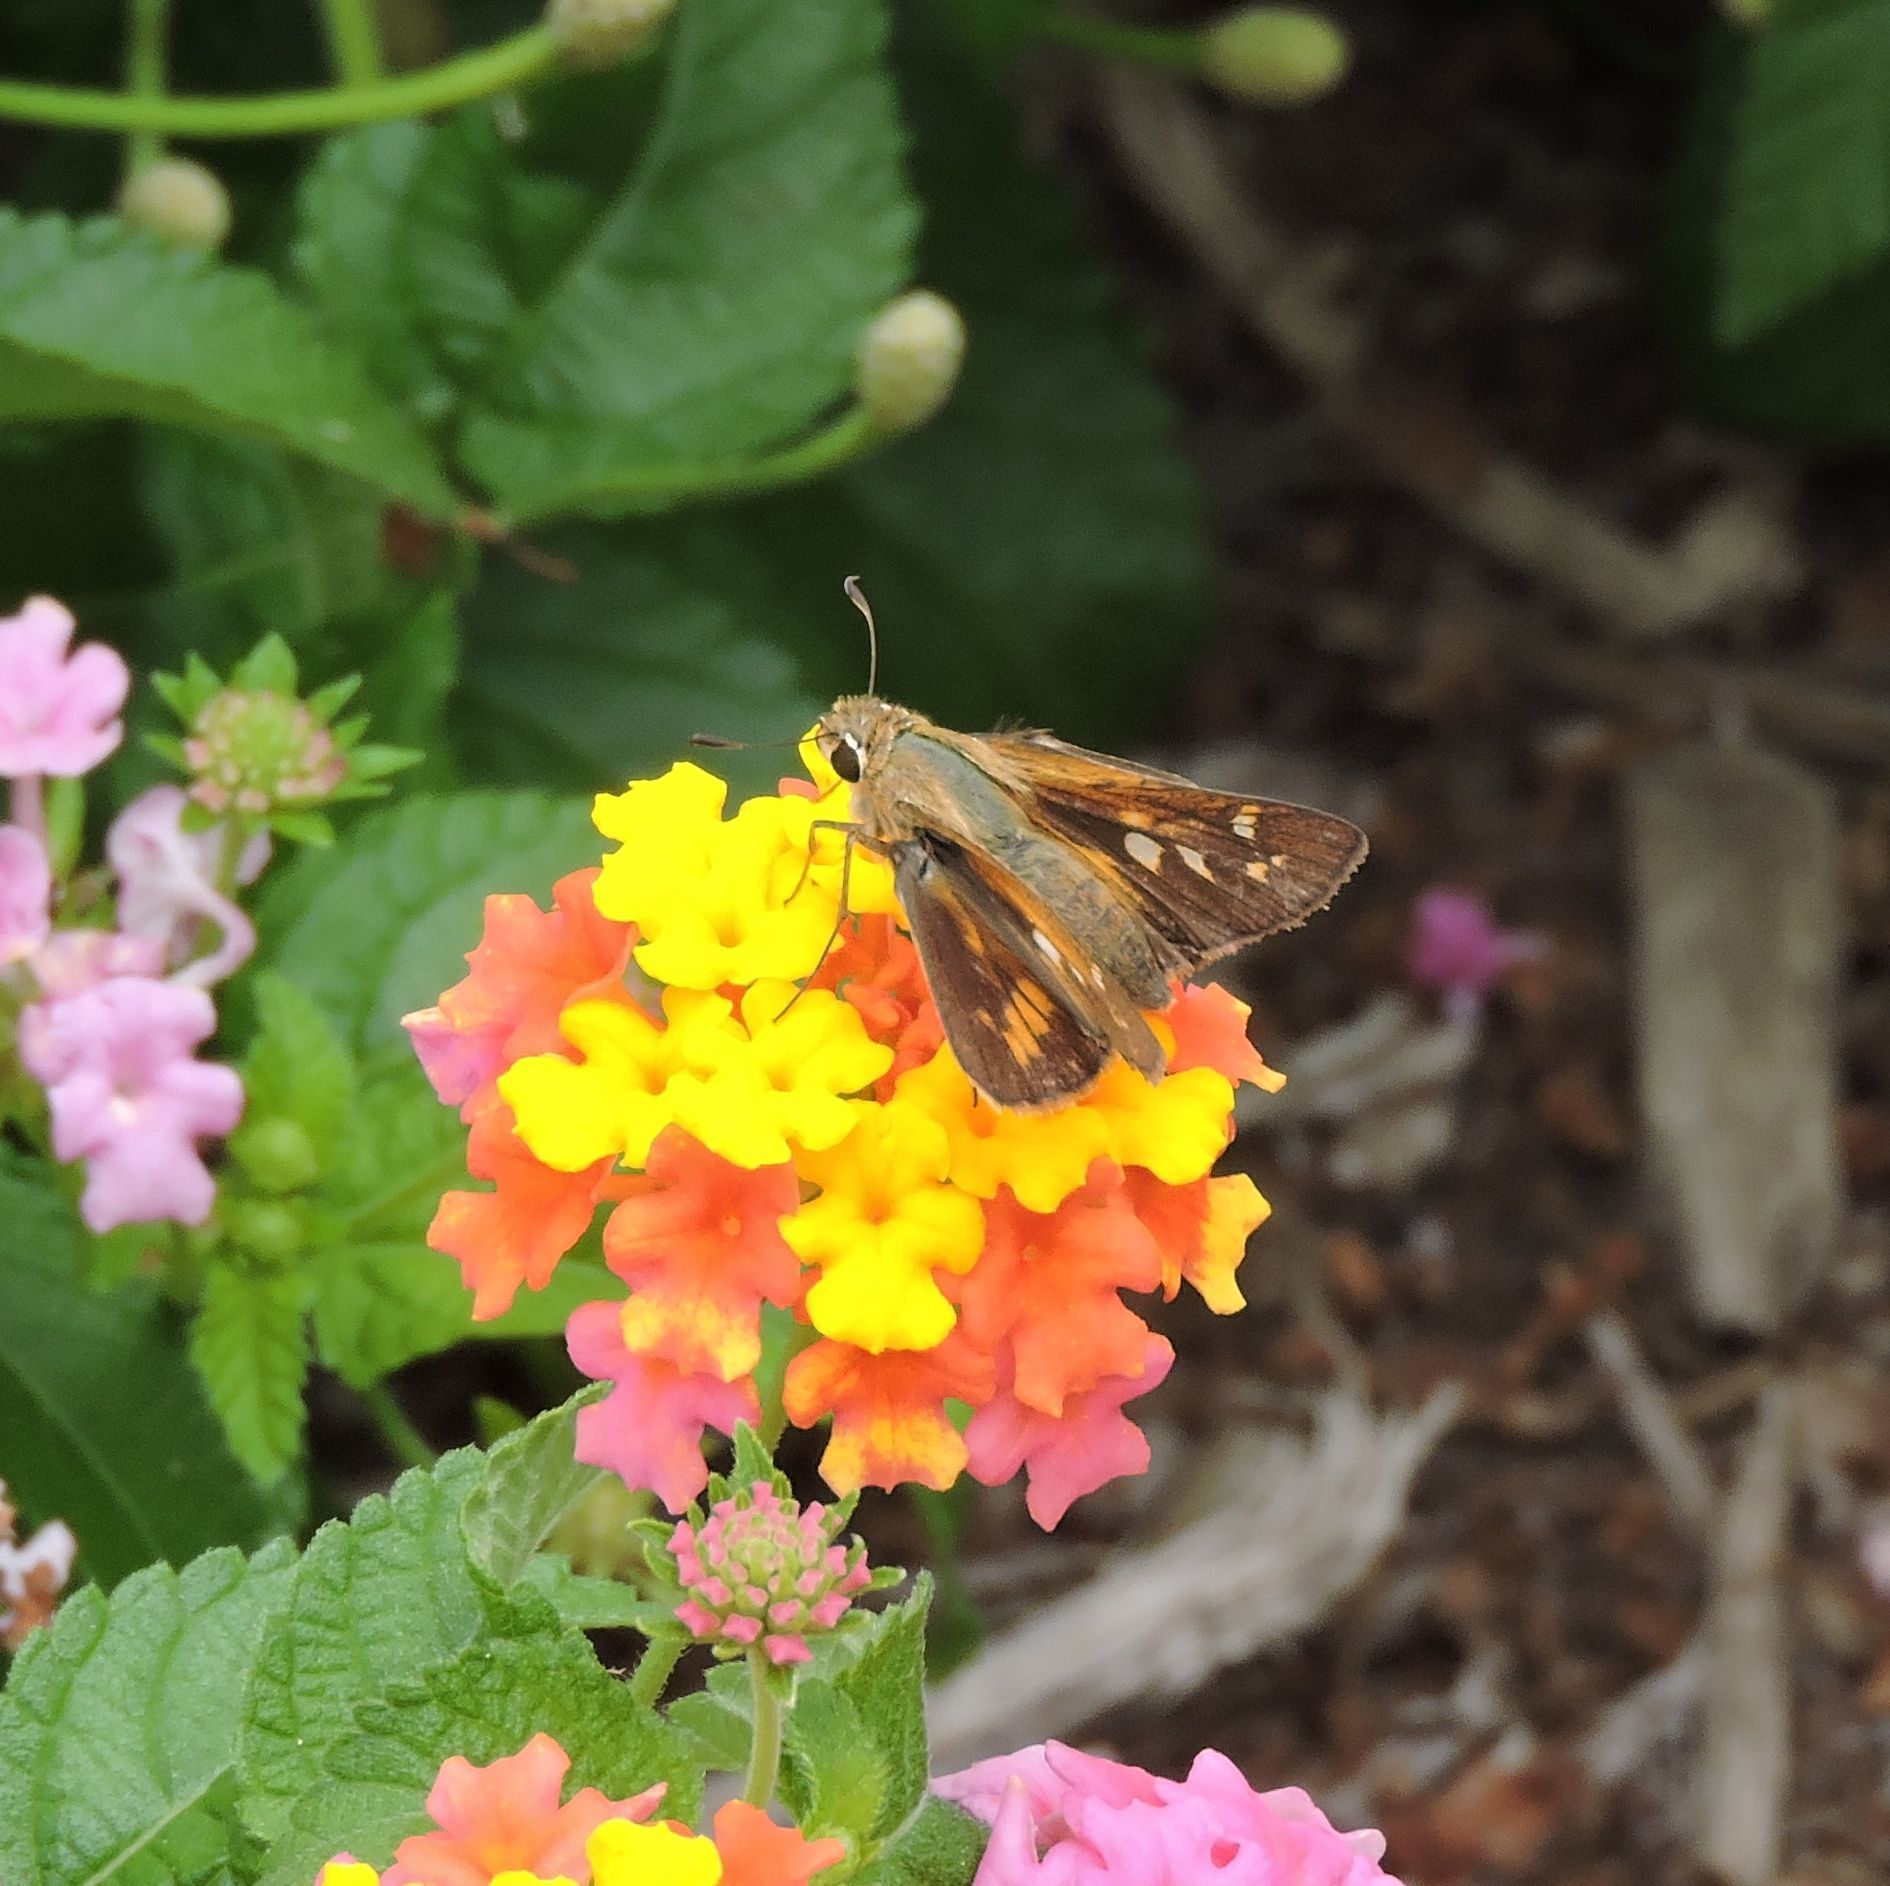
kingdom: Animalia
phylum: Arthropoda
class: Insecta
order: Lepidoptera
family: Hesperiidae
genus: Atalopedes
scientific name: Atalopedes
